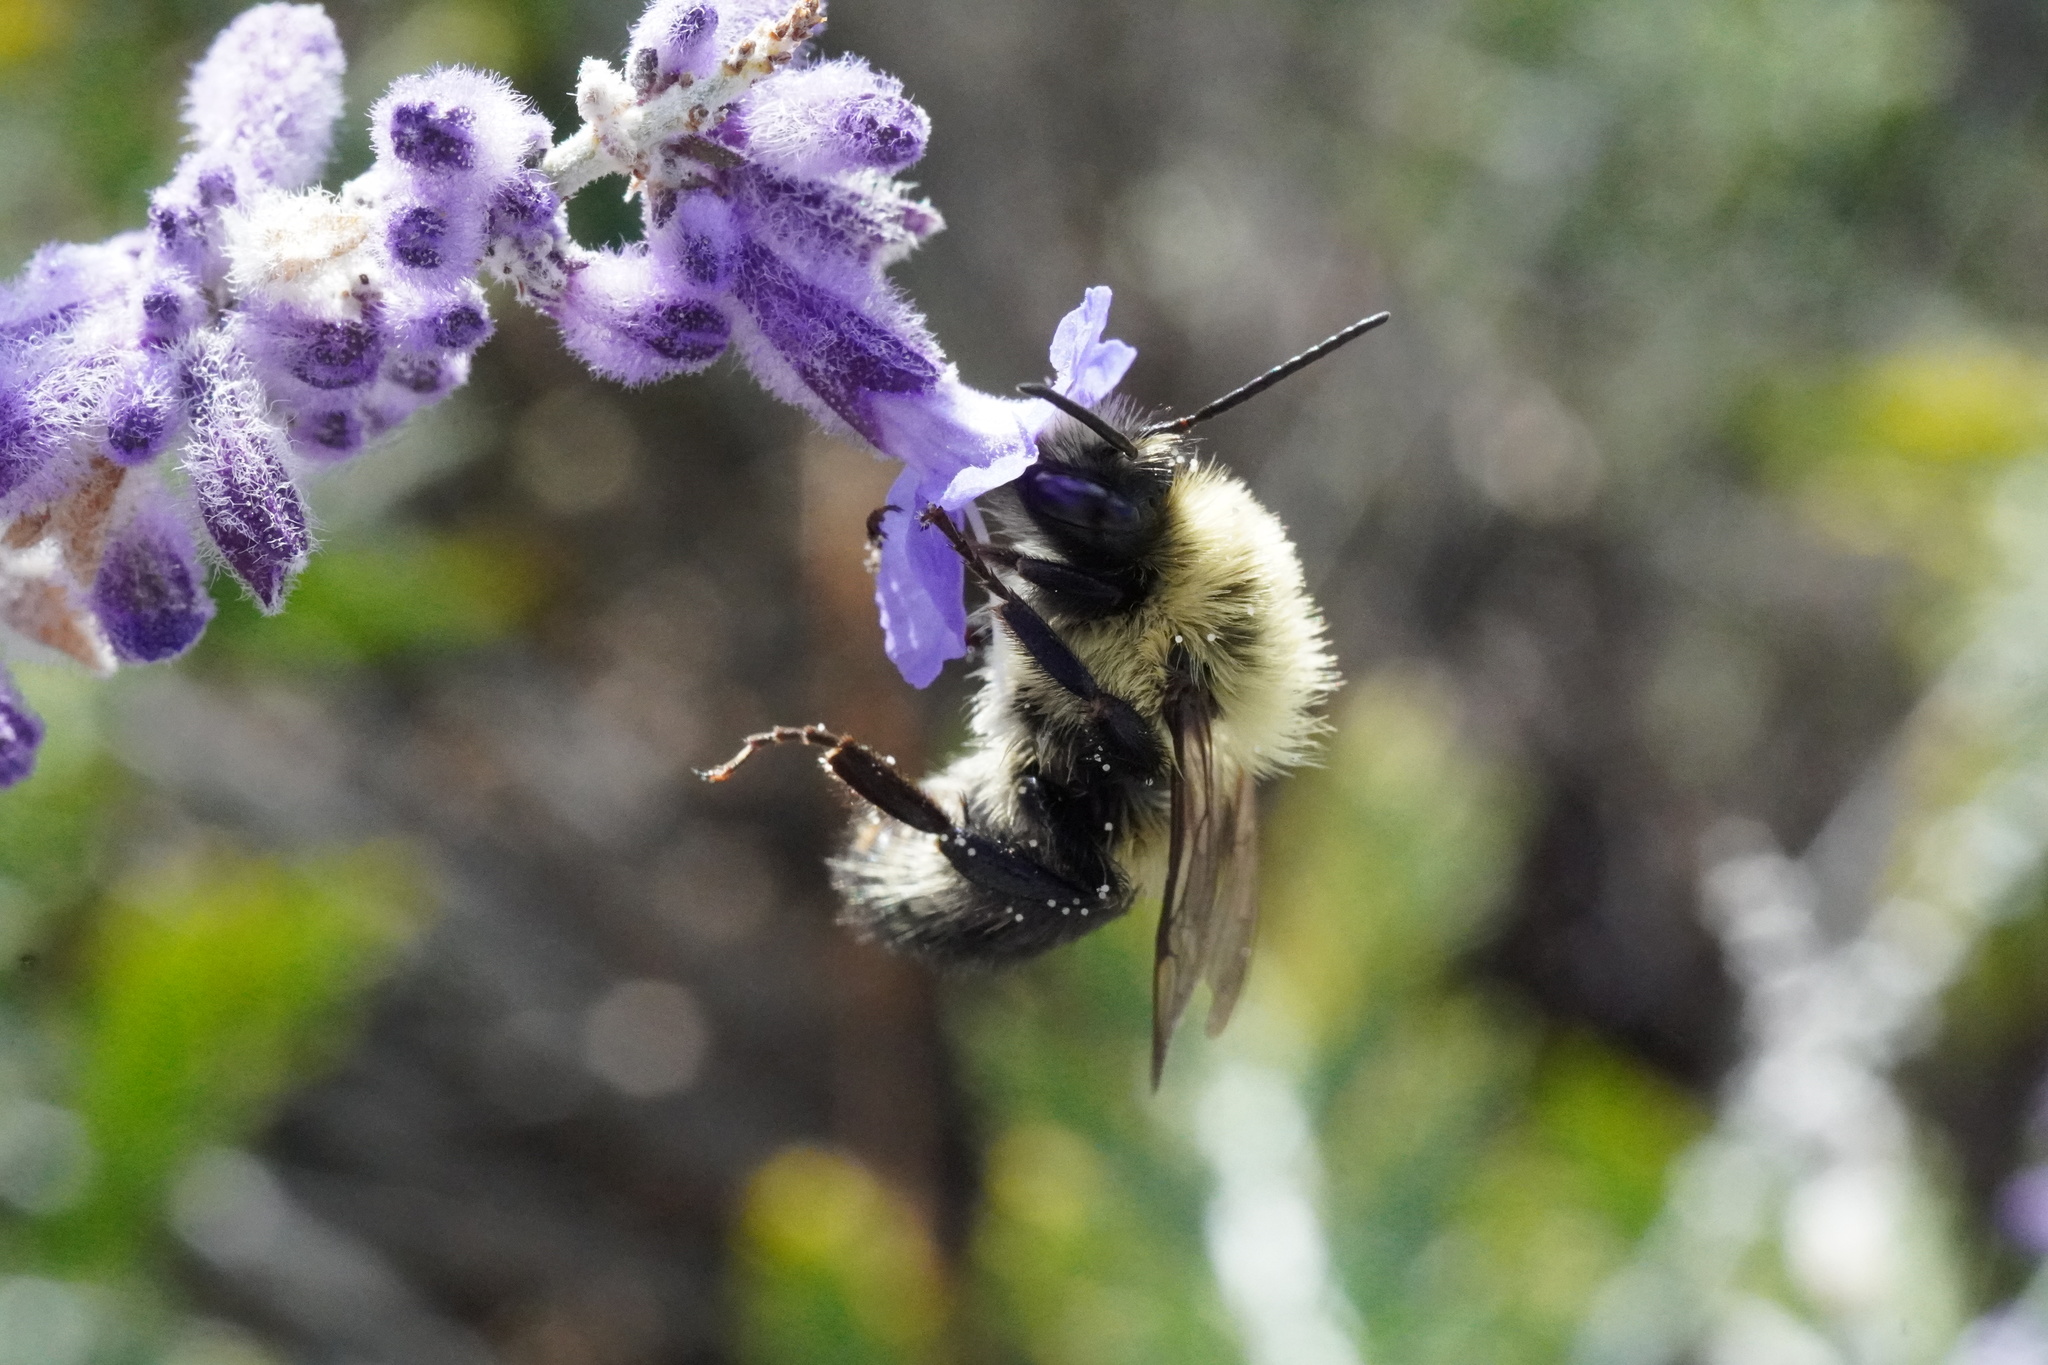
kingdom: Animalia
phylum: Arthropoda
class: Insecta
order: Hymenoptera
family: Apidae
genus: Bombus
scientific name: Bombus impatiens
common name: Common eastern bumble bee
